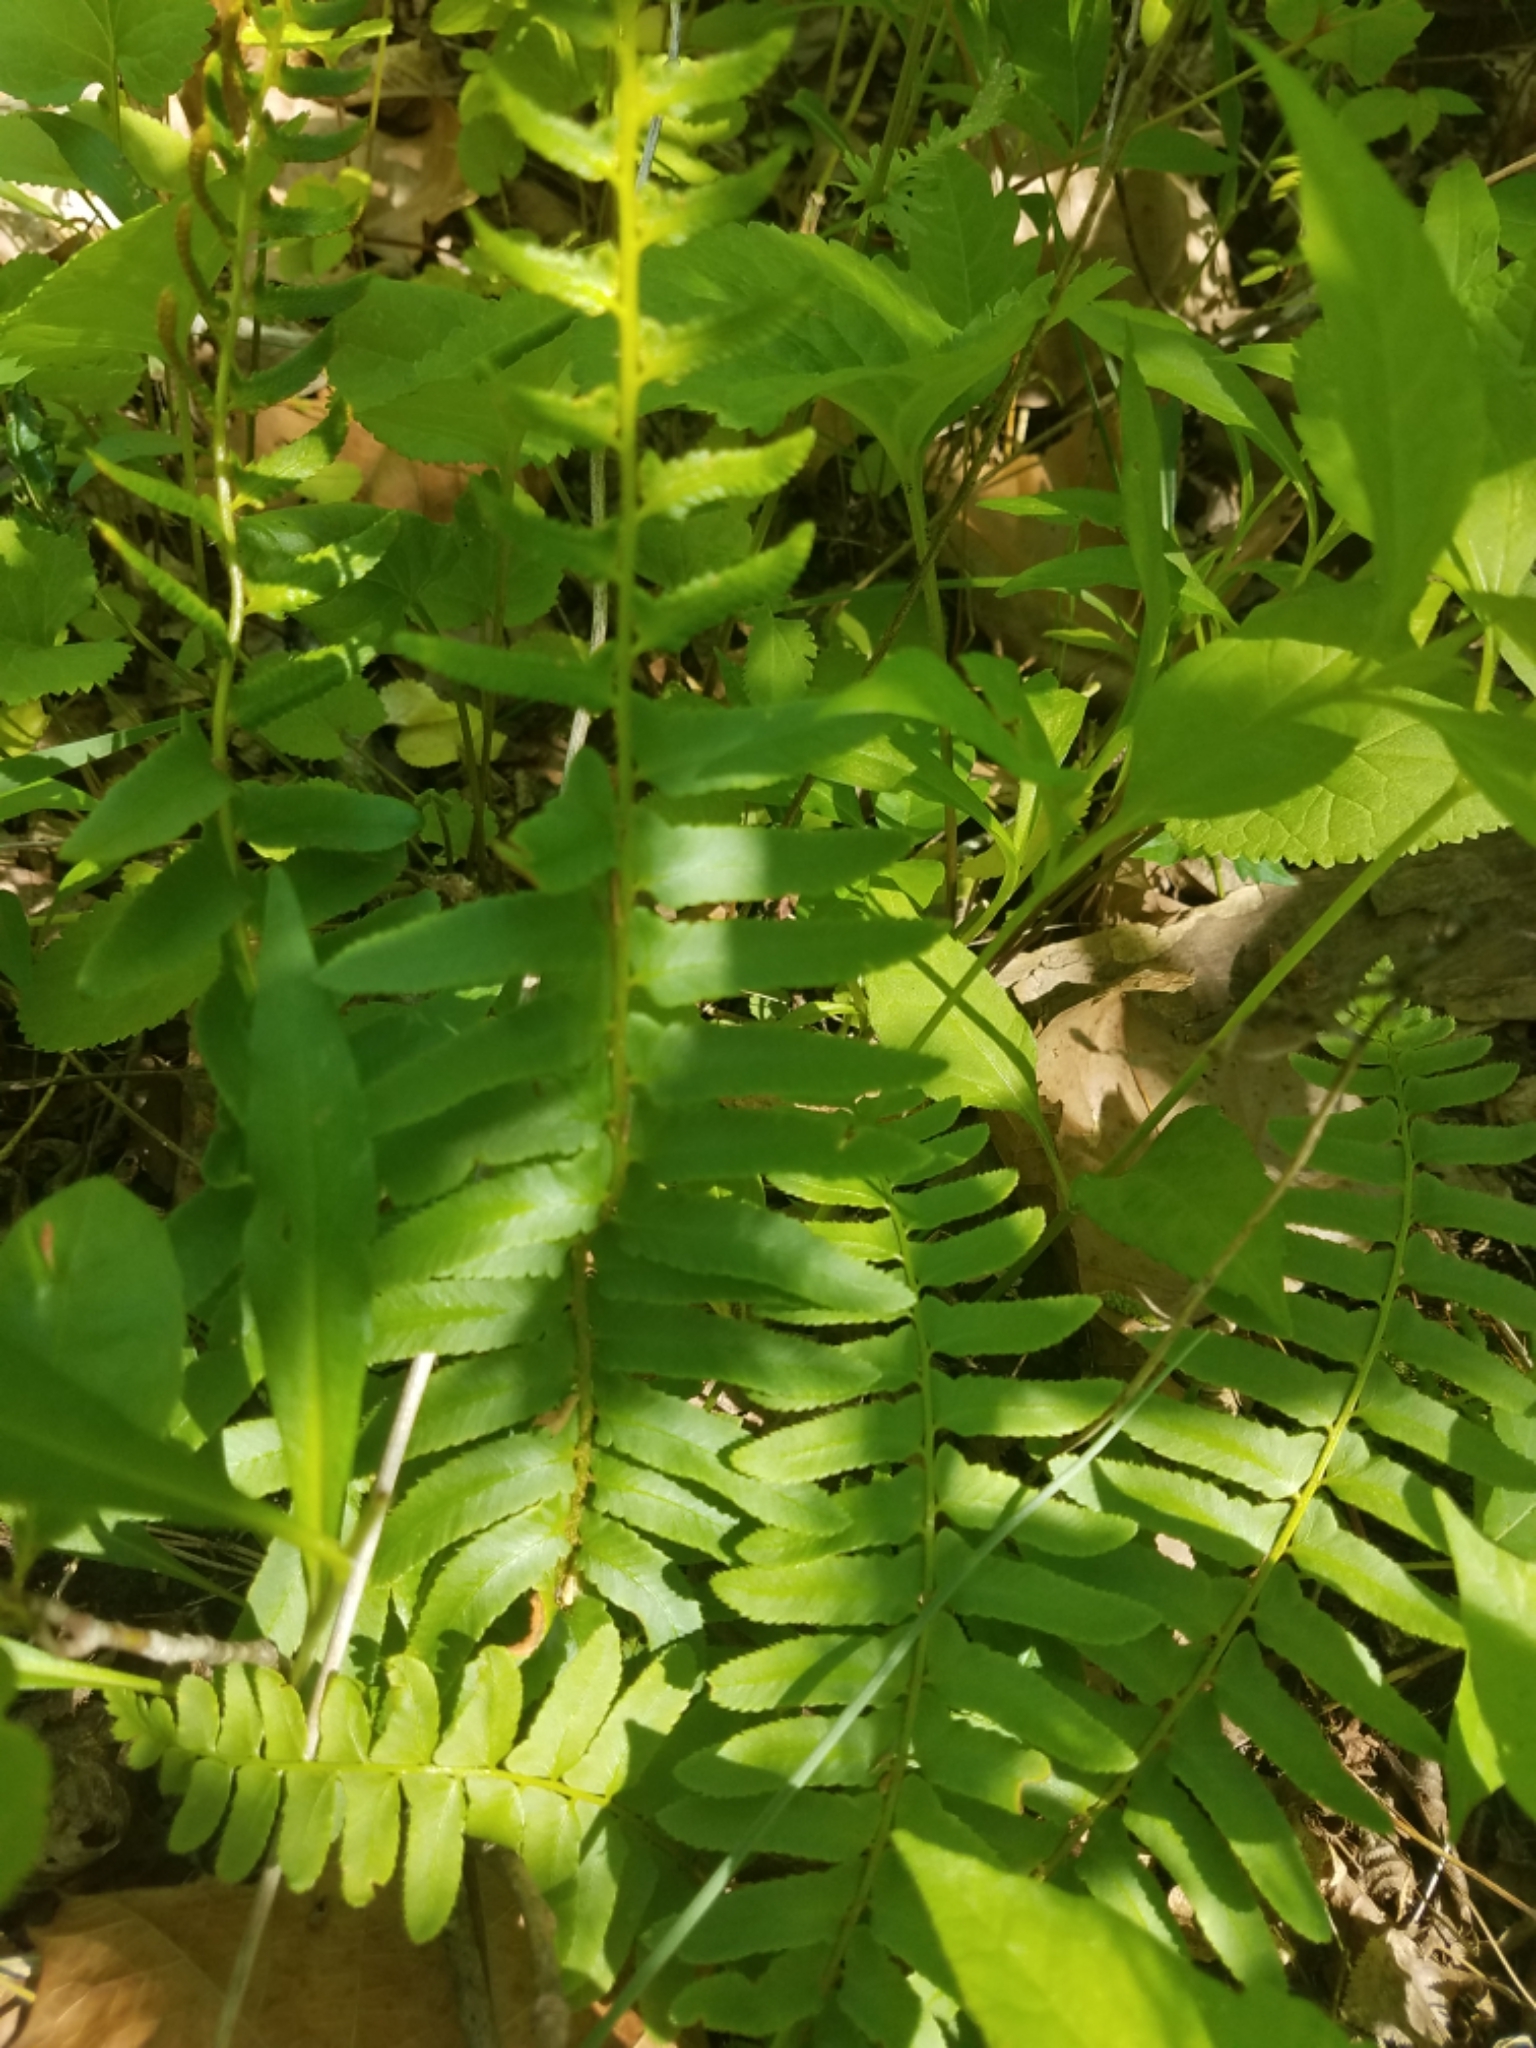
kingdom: Plantae
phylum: Tracheophyta
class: Polypodiopsida
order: Polypodiales
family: Dryopteridaceae
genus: Polystichum
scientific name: Polystichum acrostichoides
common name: Christmas fern
